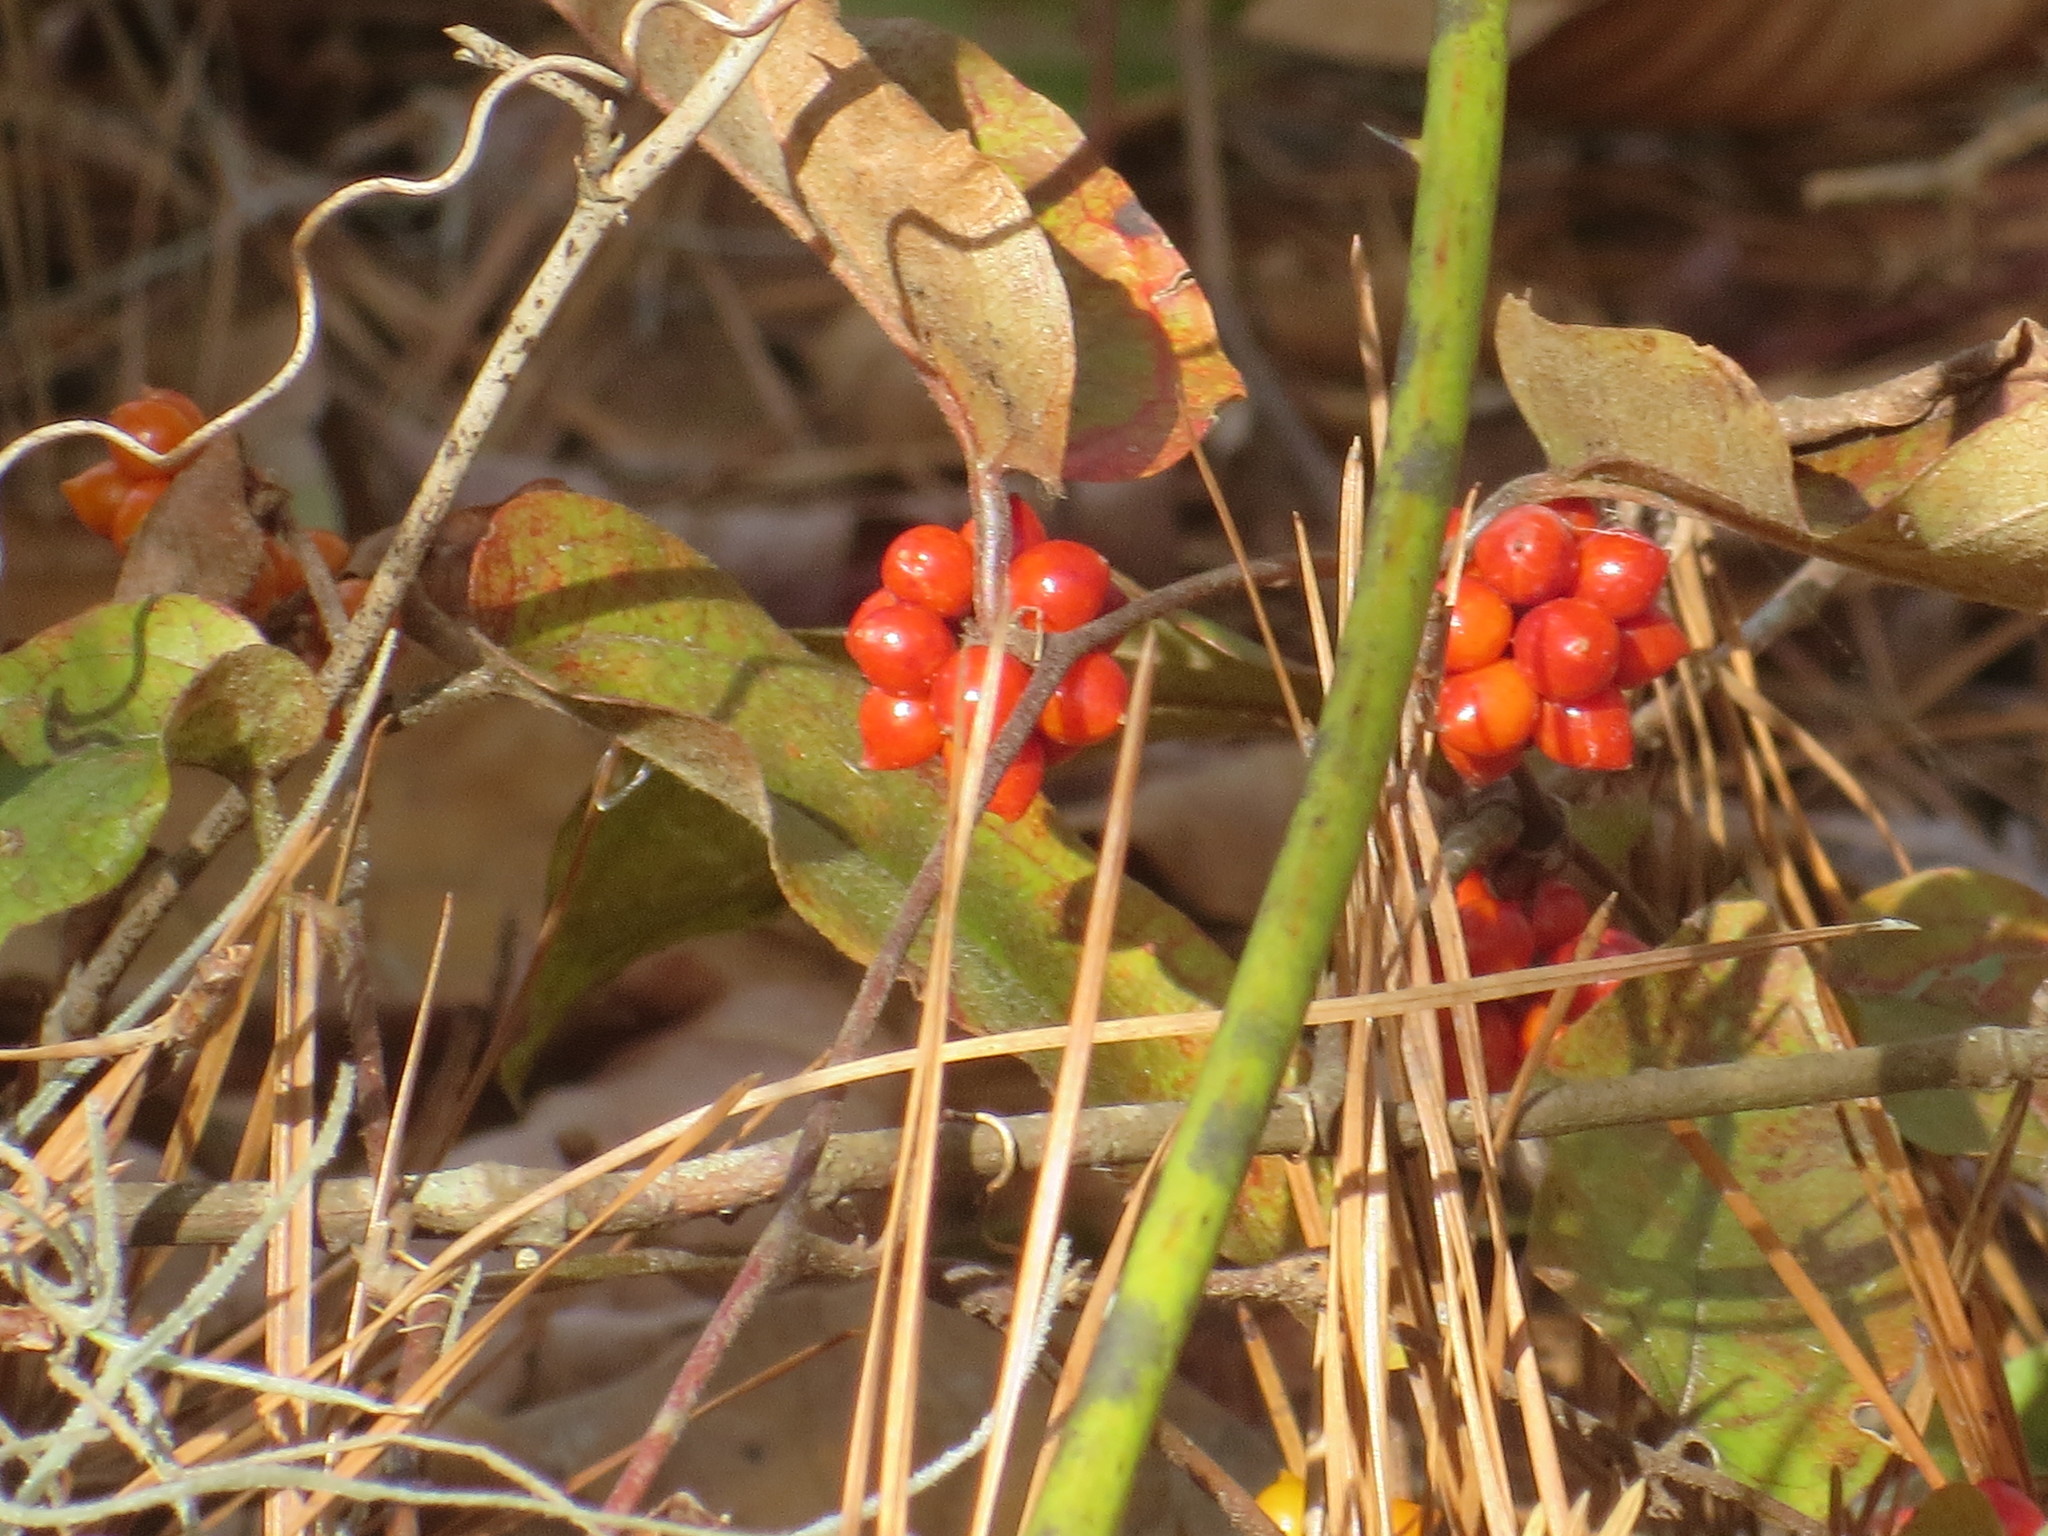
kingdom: Plantae
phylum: Tracheophyta
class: Liliopsida
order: Liliales
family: Smilacaceae
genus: Smilax
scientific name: Smilax pumila
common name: Sarsaparilla-vine
